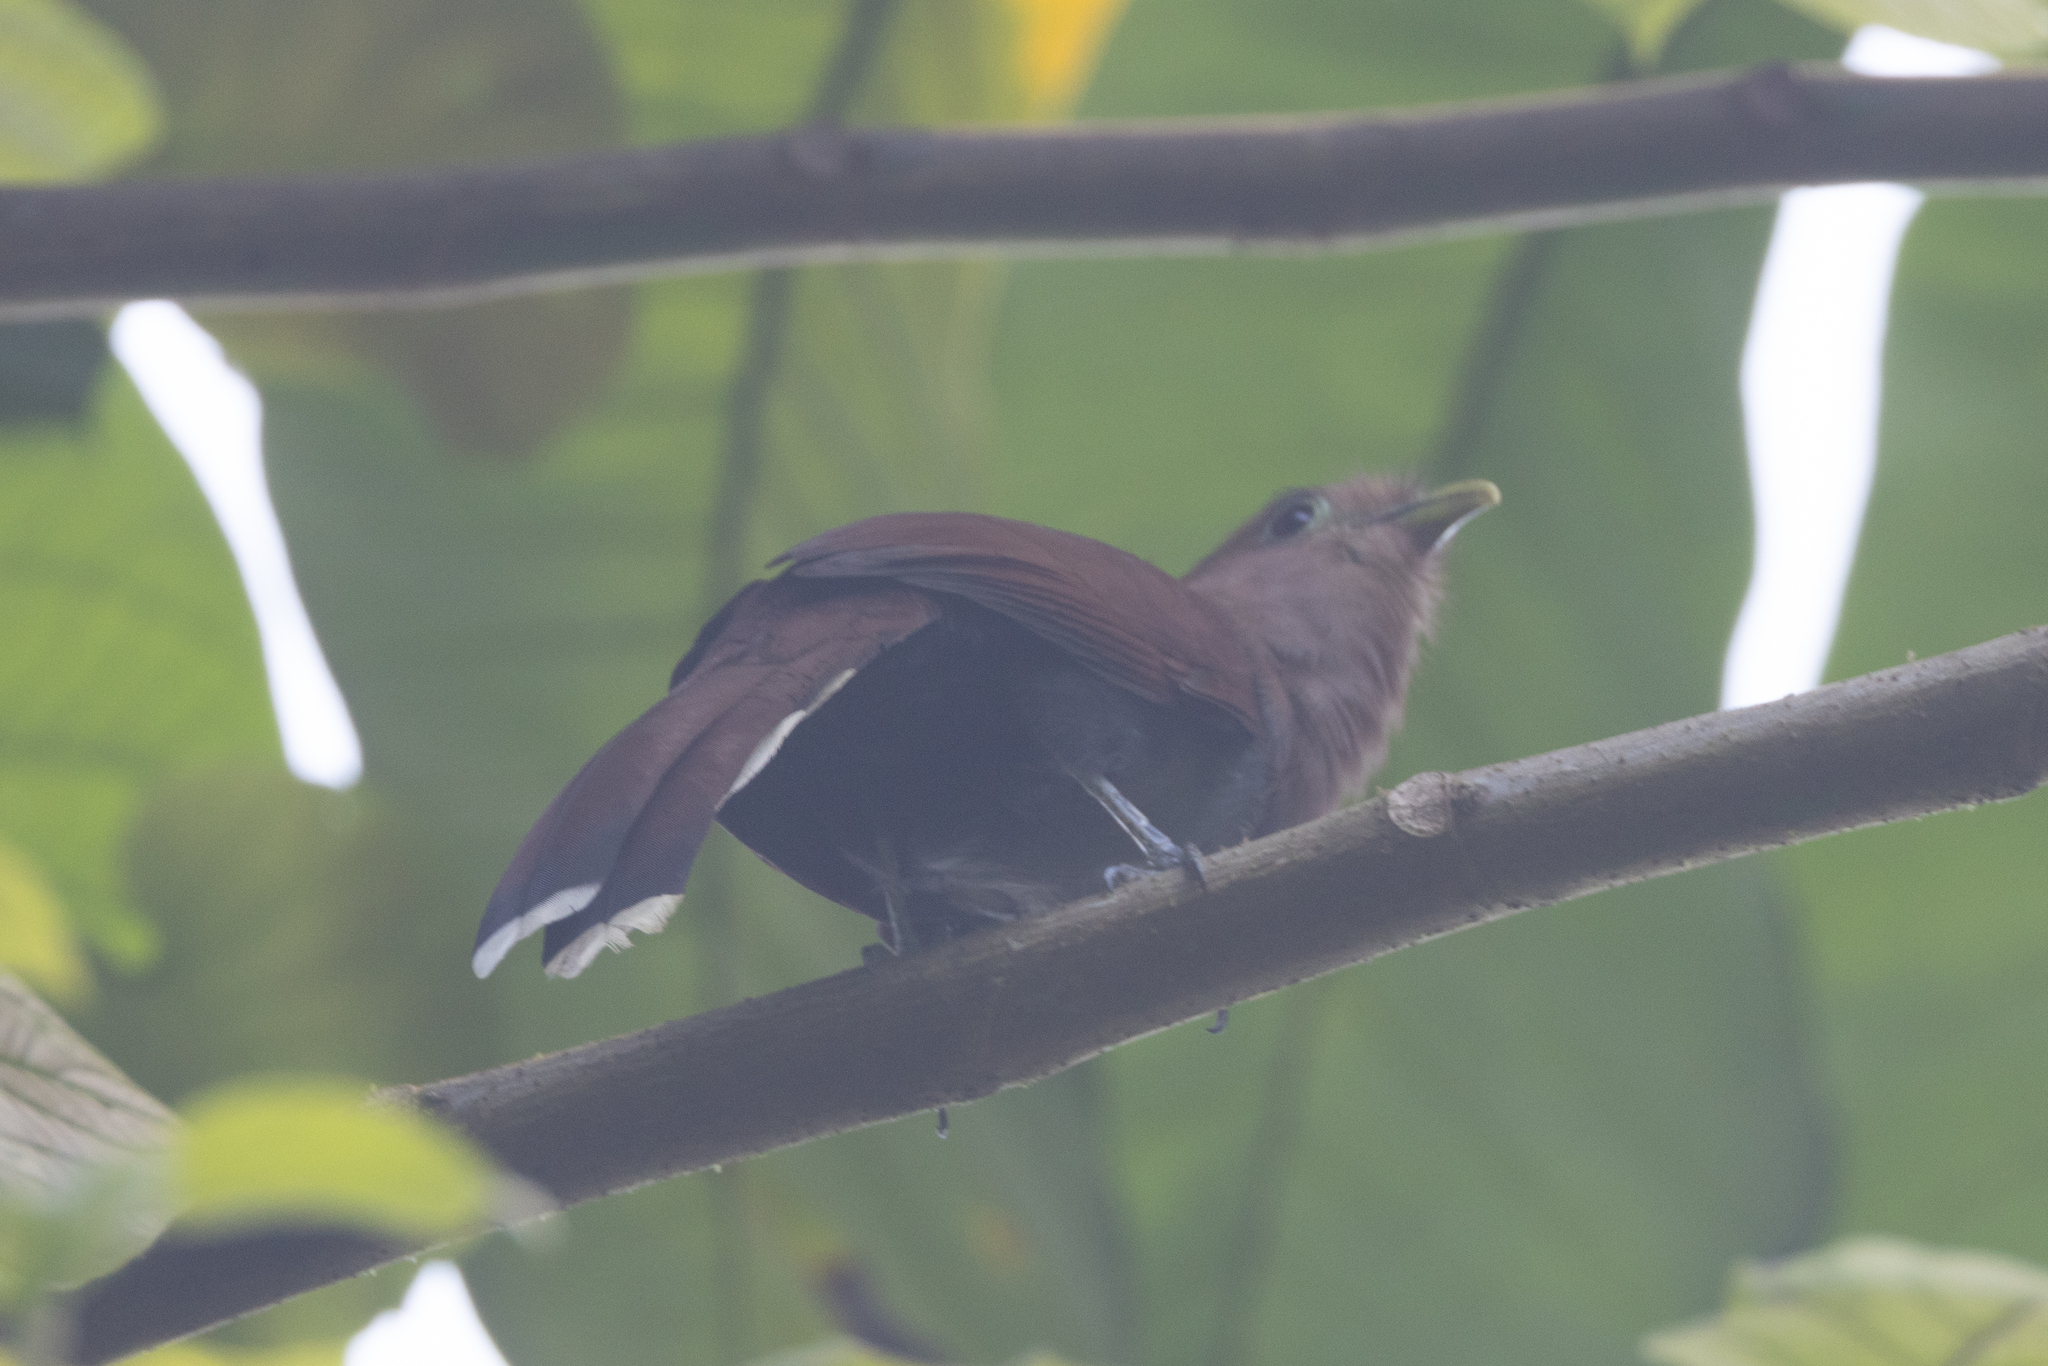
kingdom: Animalia
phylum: Chordata
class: Aves
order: Cuculiformes
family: Cuculidae
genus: Piaya
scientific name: Piaya cayana
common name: Squirrel cuckoo
